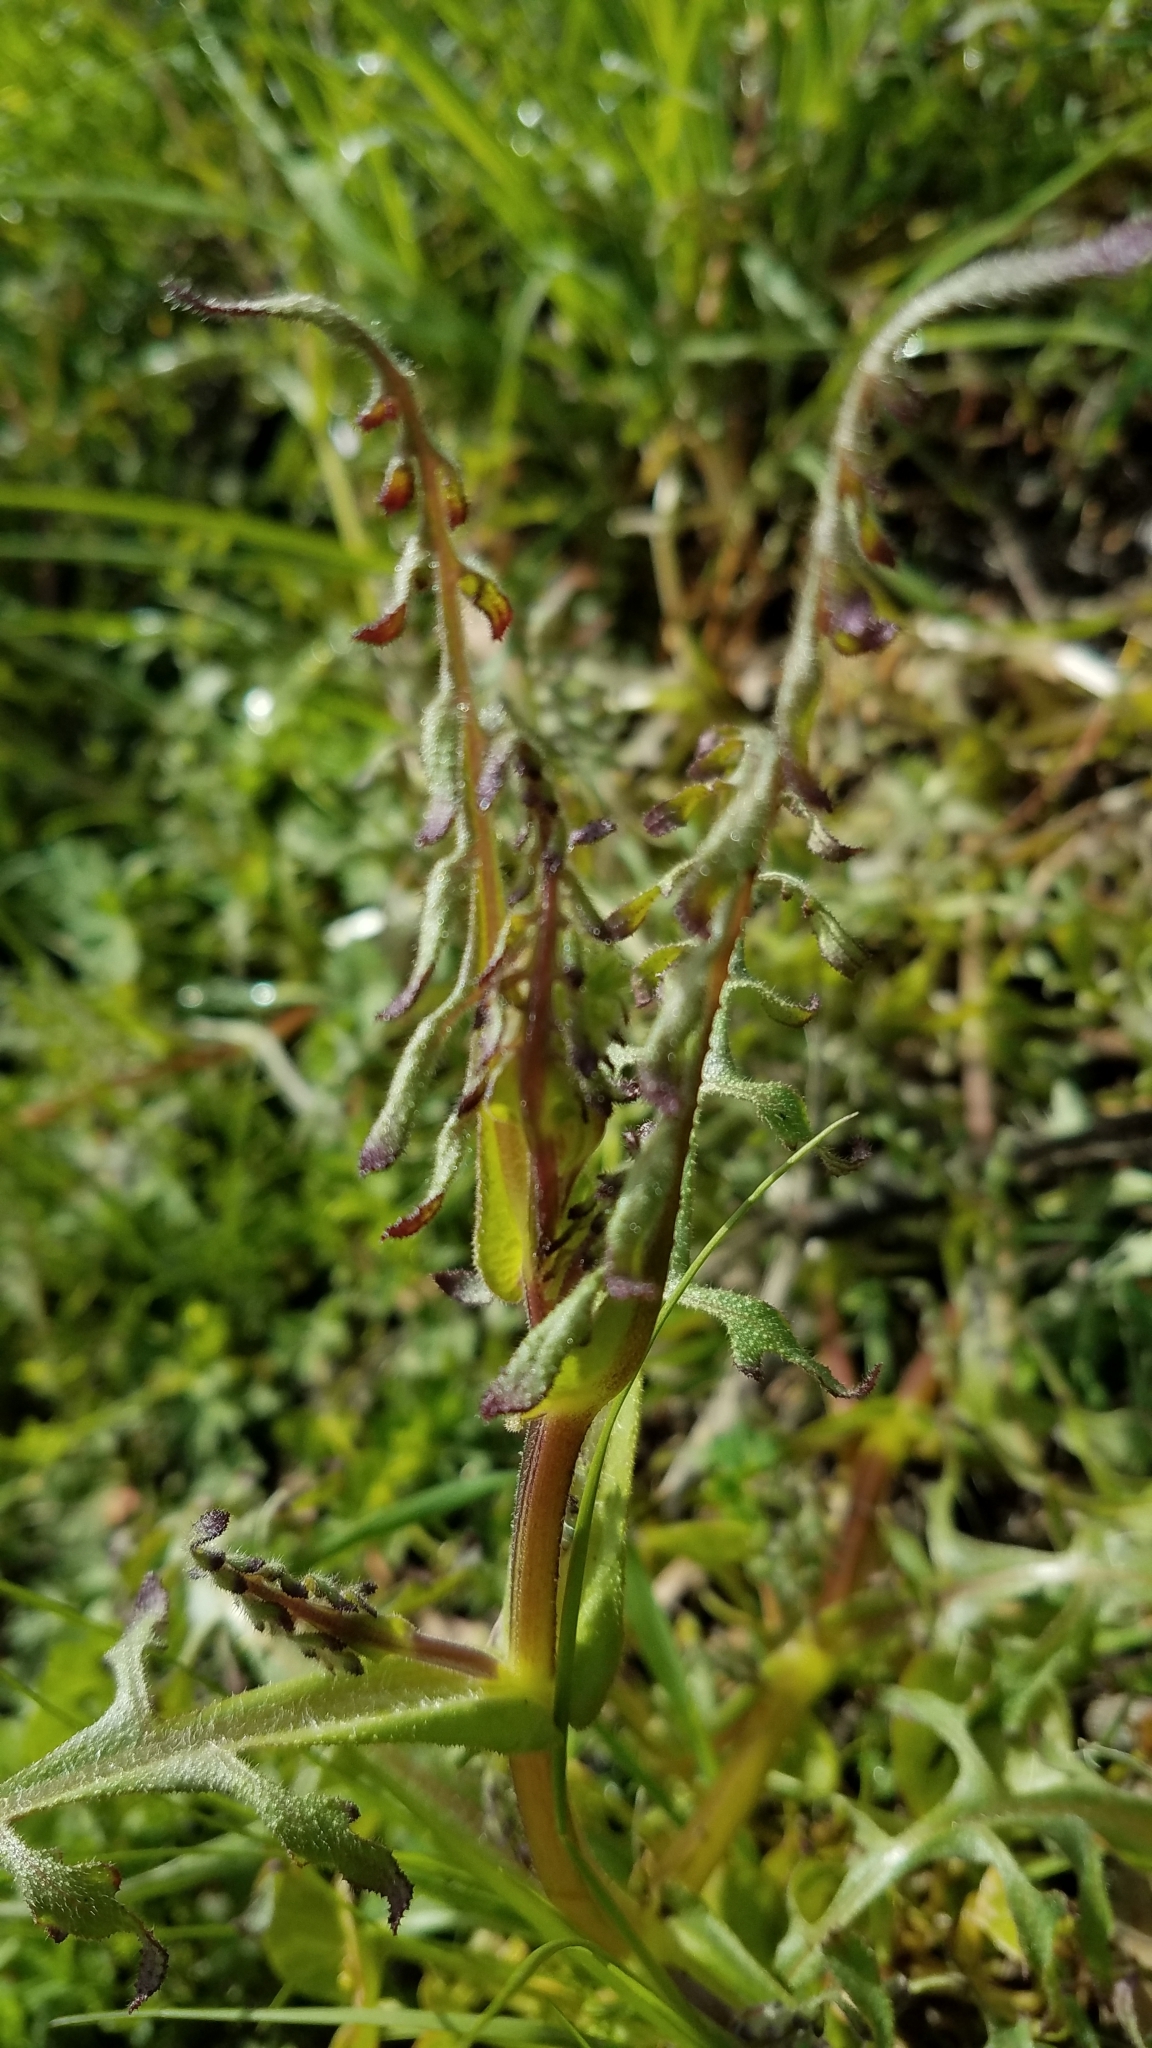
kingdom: Plantae
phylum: Tracheophyta
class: Magnoliopsida
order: Boraginales
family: Hydrophyllaceae
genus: Pholistoma
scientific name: Pholistoma auritum
